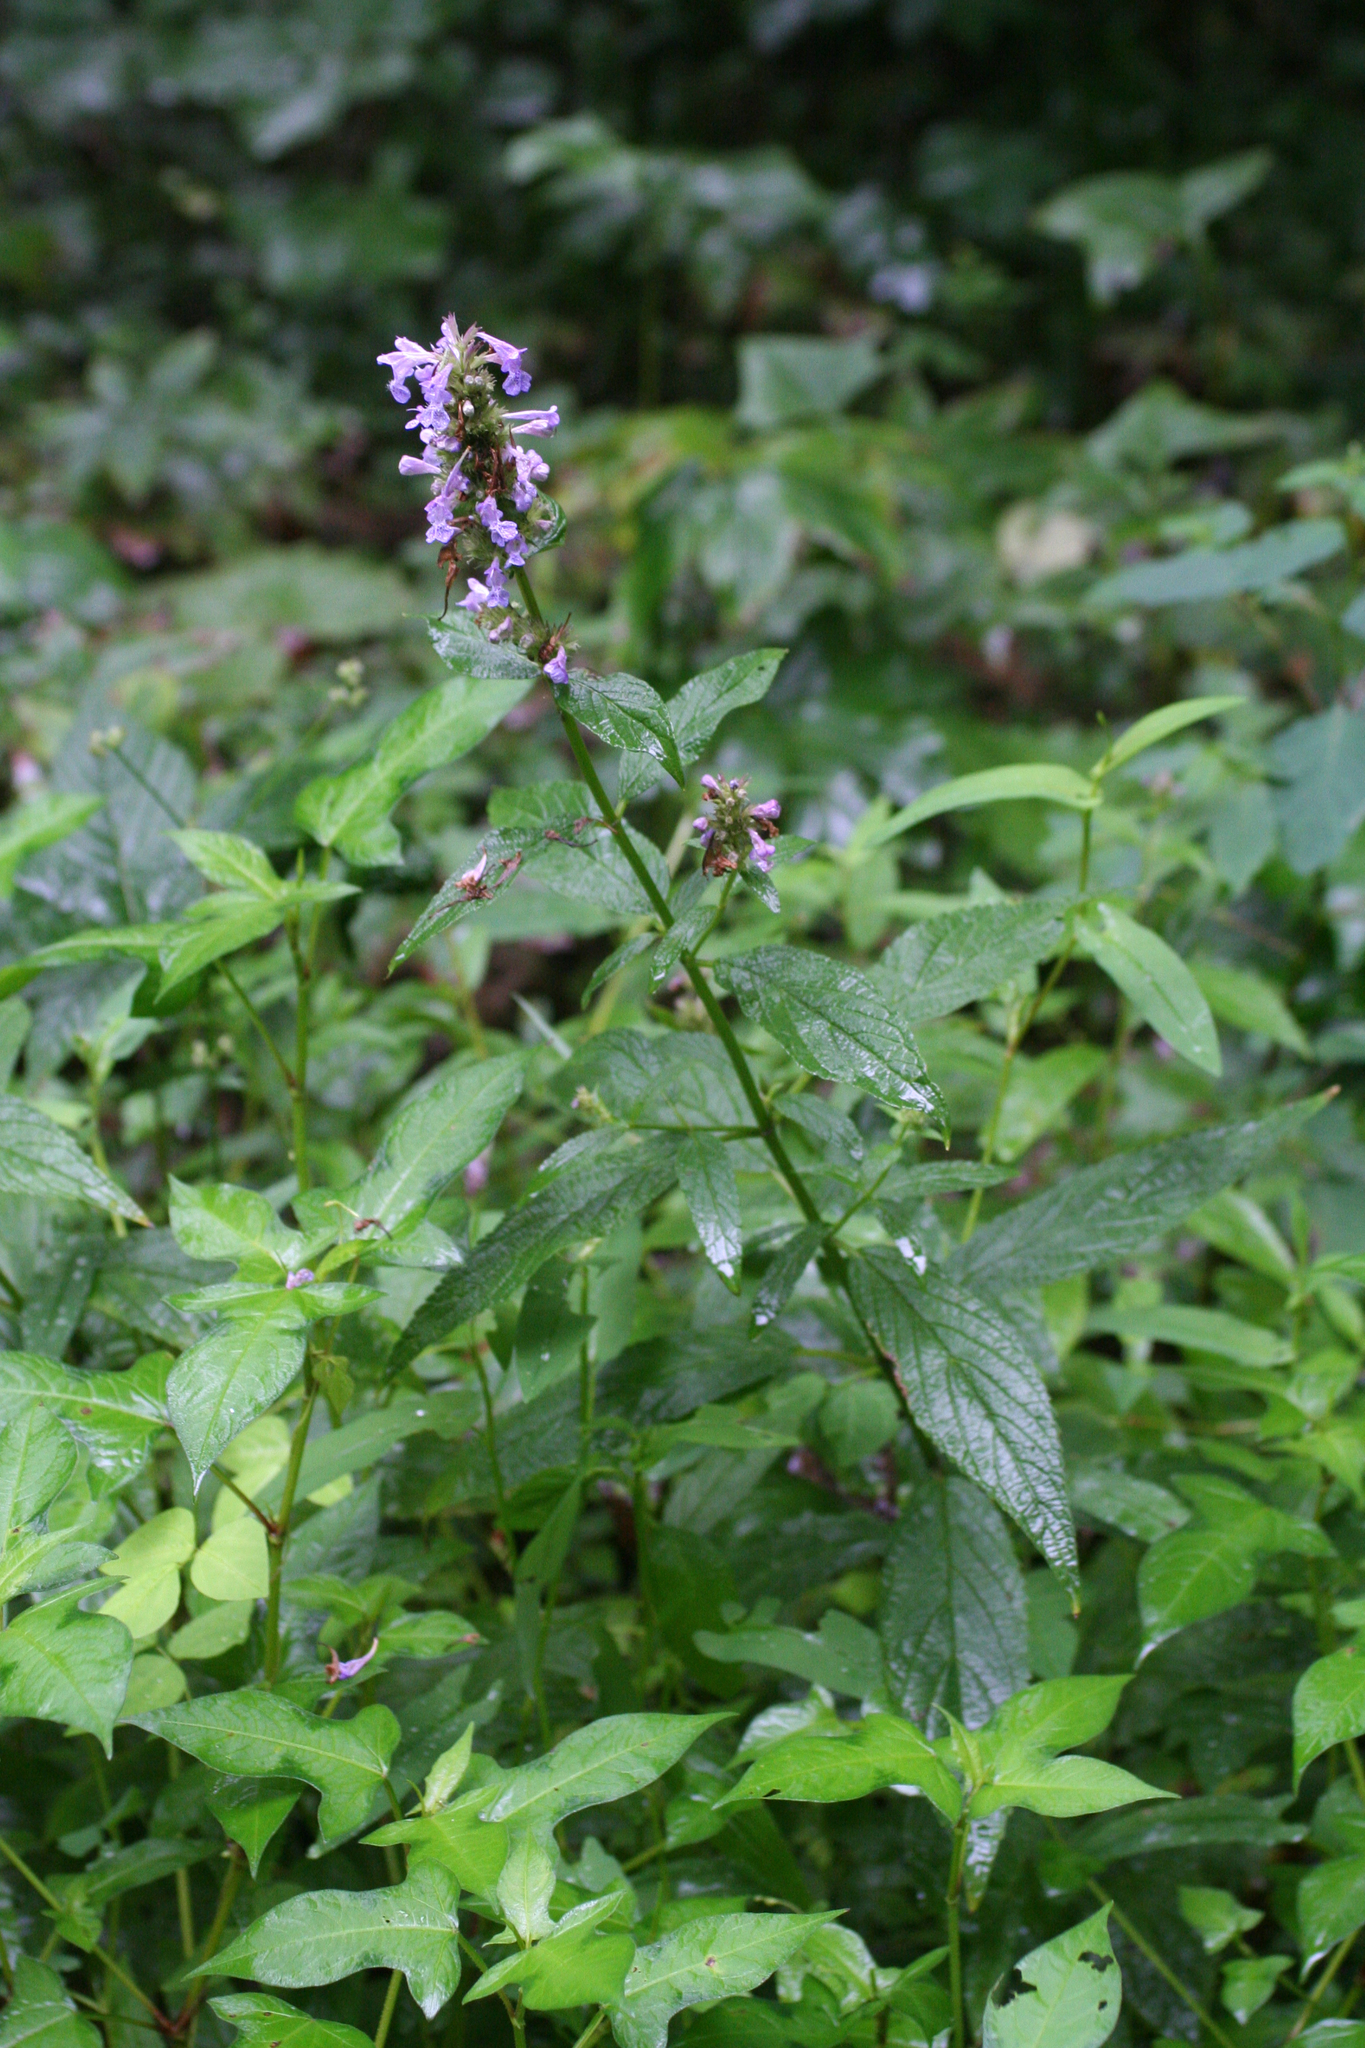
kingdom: Plantae
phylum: Tracheophyta
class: Magnoliopsida
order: Lamiales
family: Lamiaceae
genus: Nepeta
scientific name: Nepeta manchuriensis
